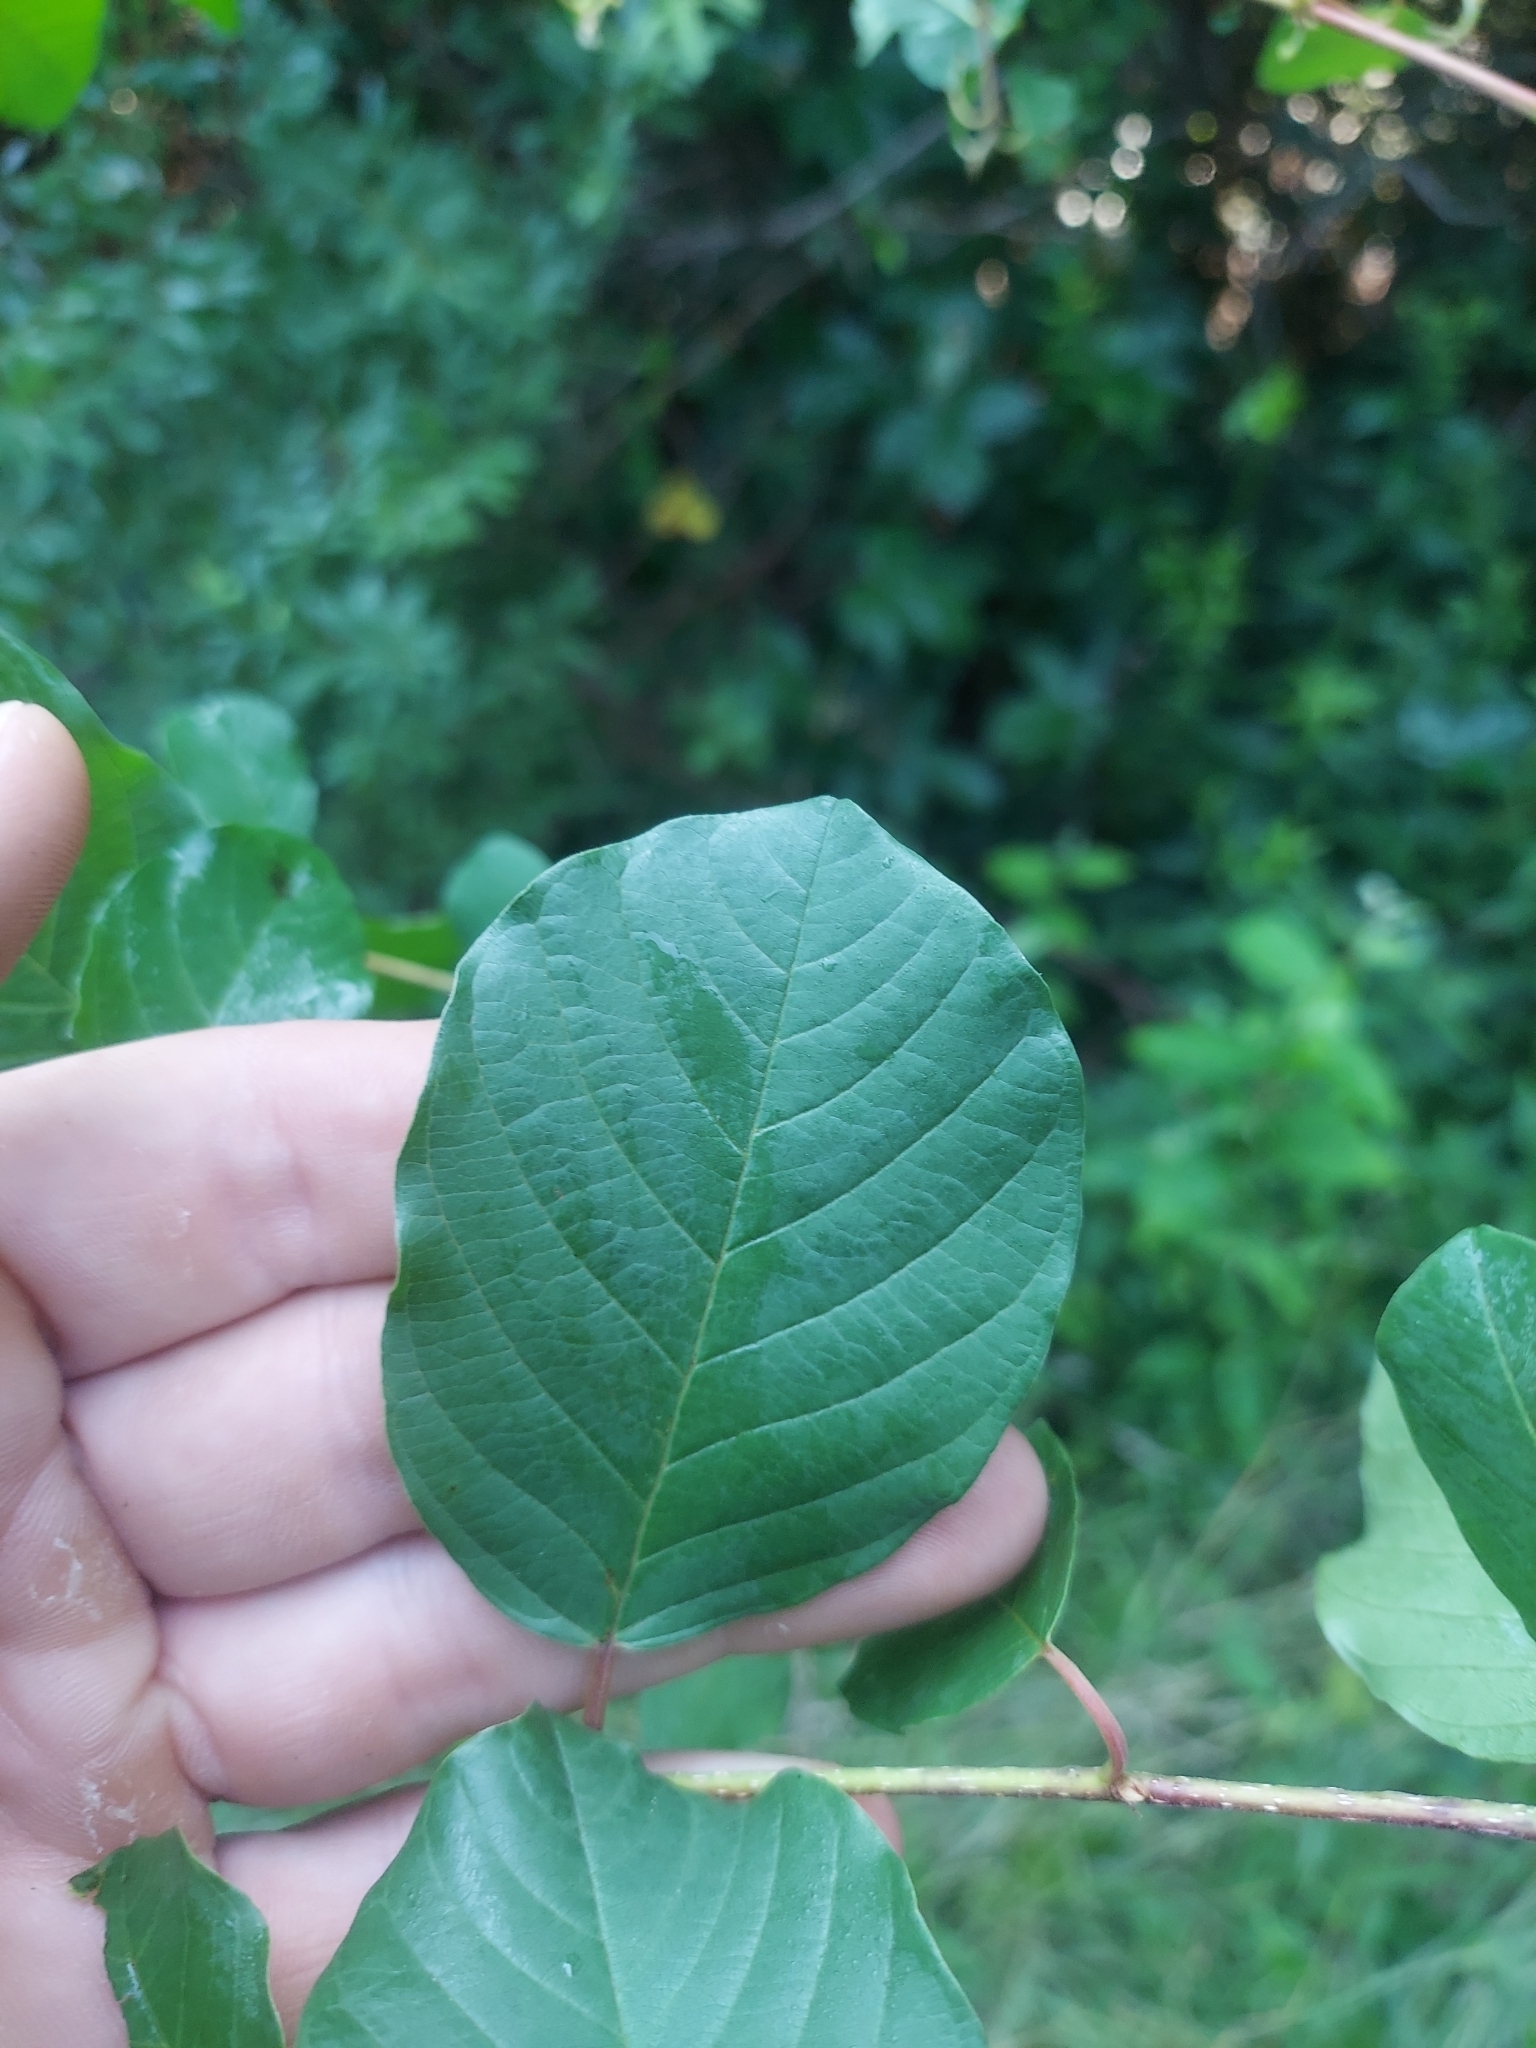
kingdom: Plantae
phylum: Tracheophyta
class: Magnoliopsida
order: Rosales
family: Rhamnaceae
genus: Frangula
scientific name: Frangula alnus
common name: Alder buckthorn
